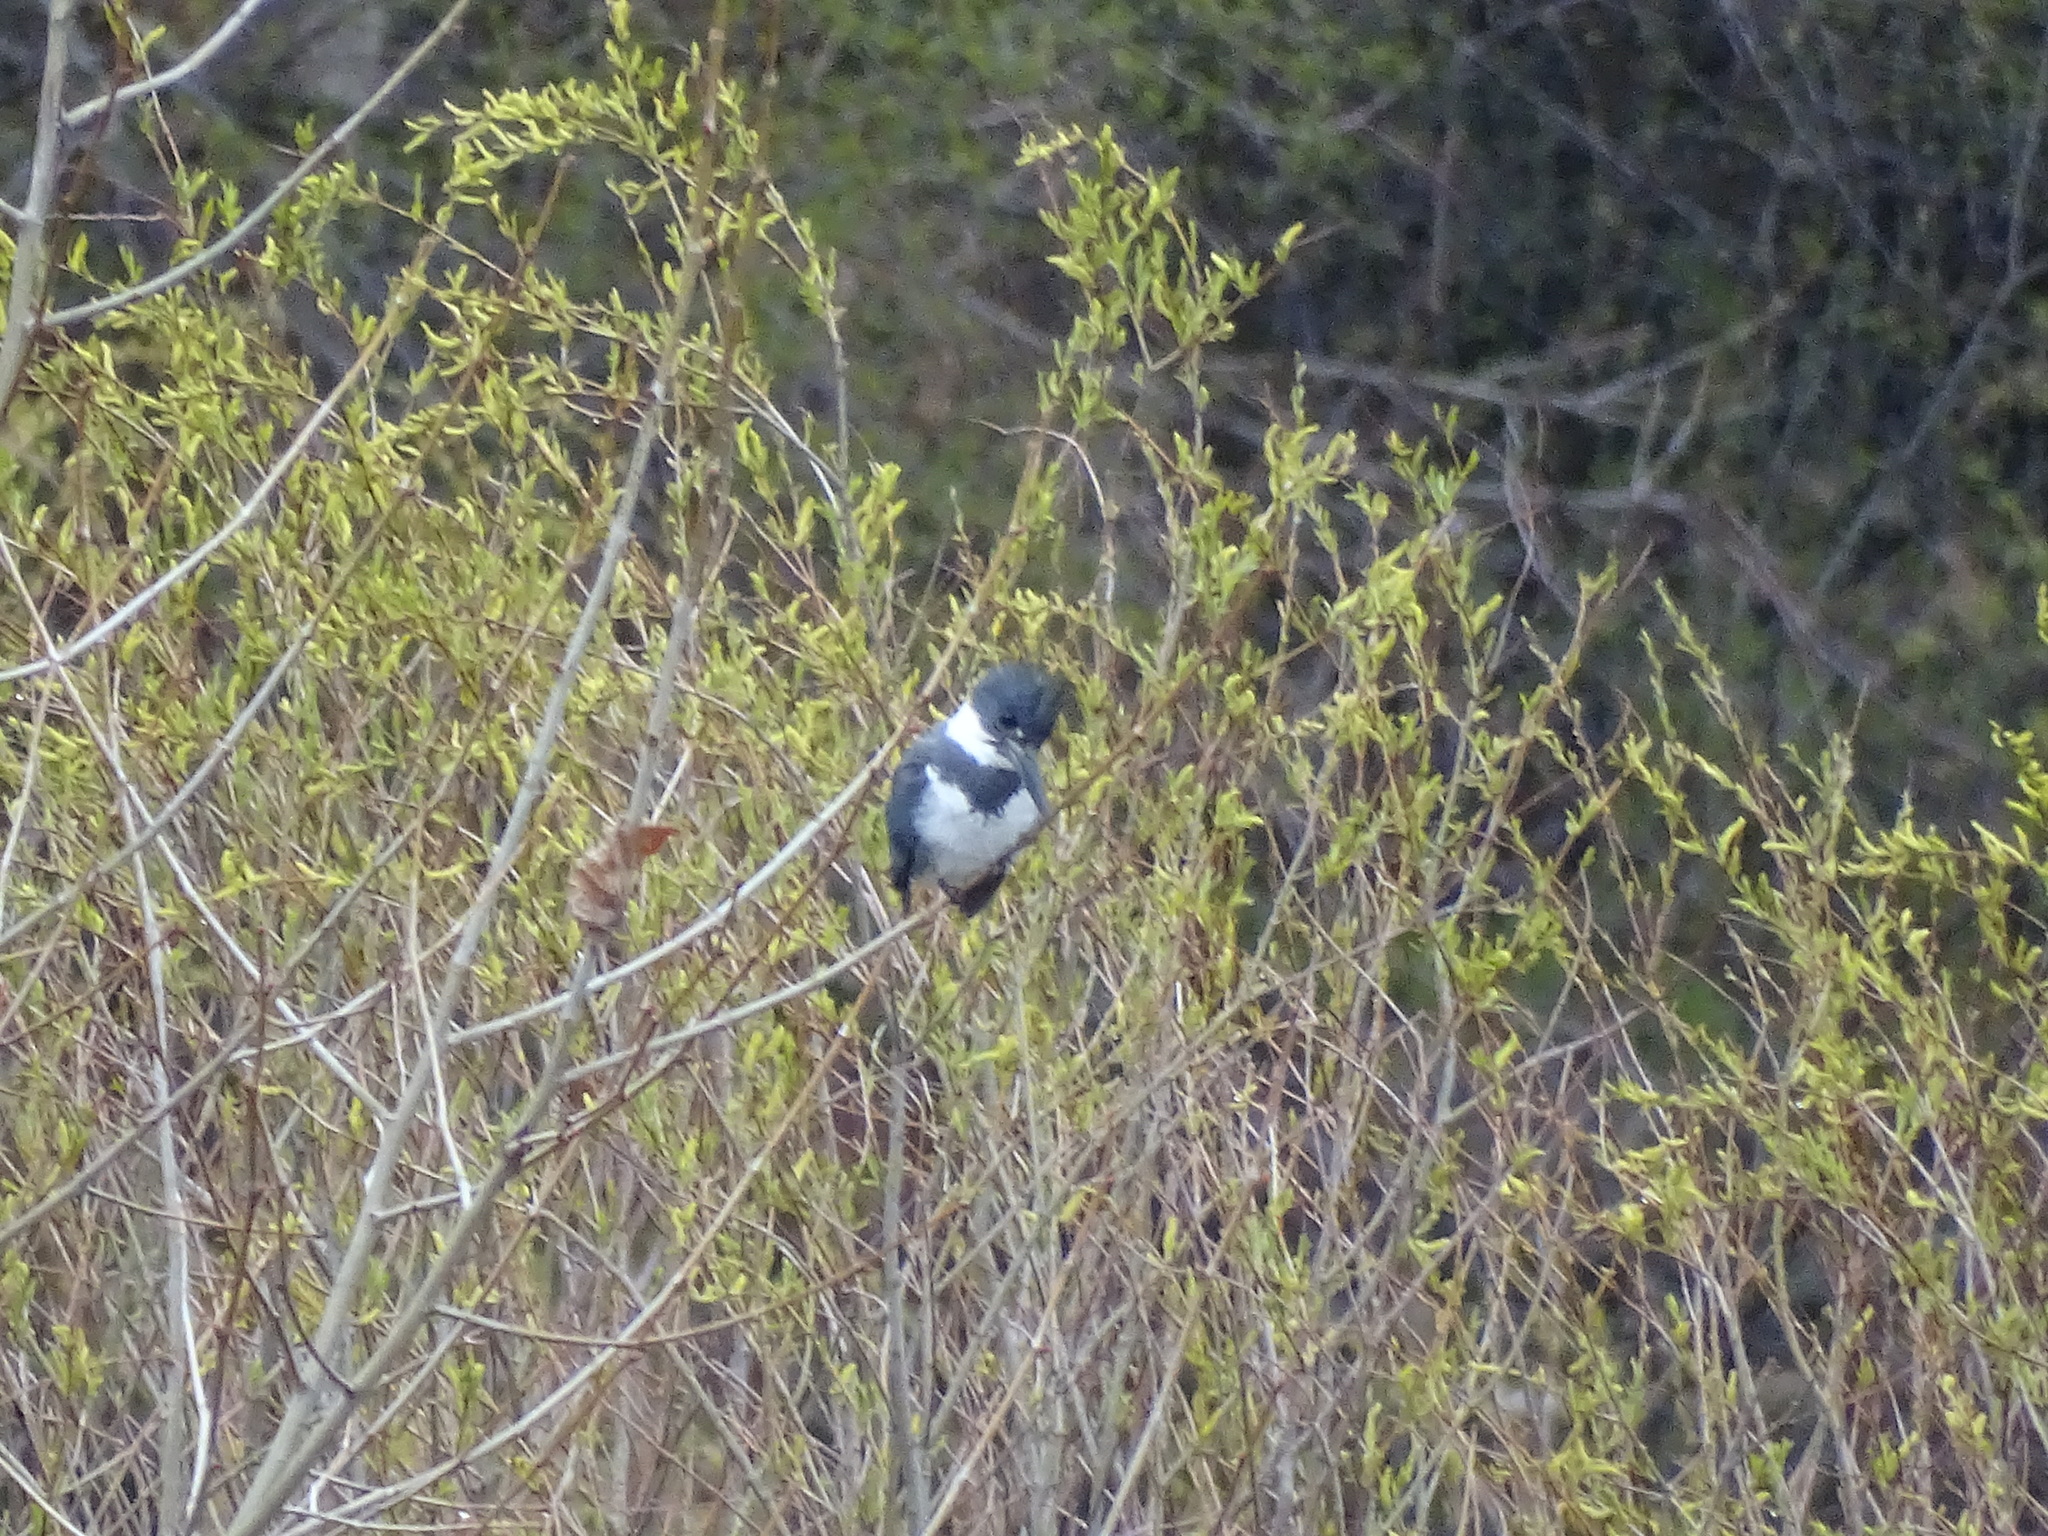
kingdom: Animalia
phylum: Chordata
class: Aves
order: Coraciiformes
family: Alcedinidae
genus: Megaceryle
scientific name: Megaceryle alcyon
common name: Belted kingfisher
